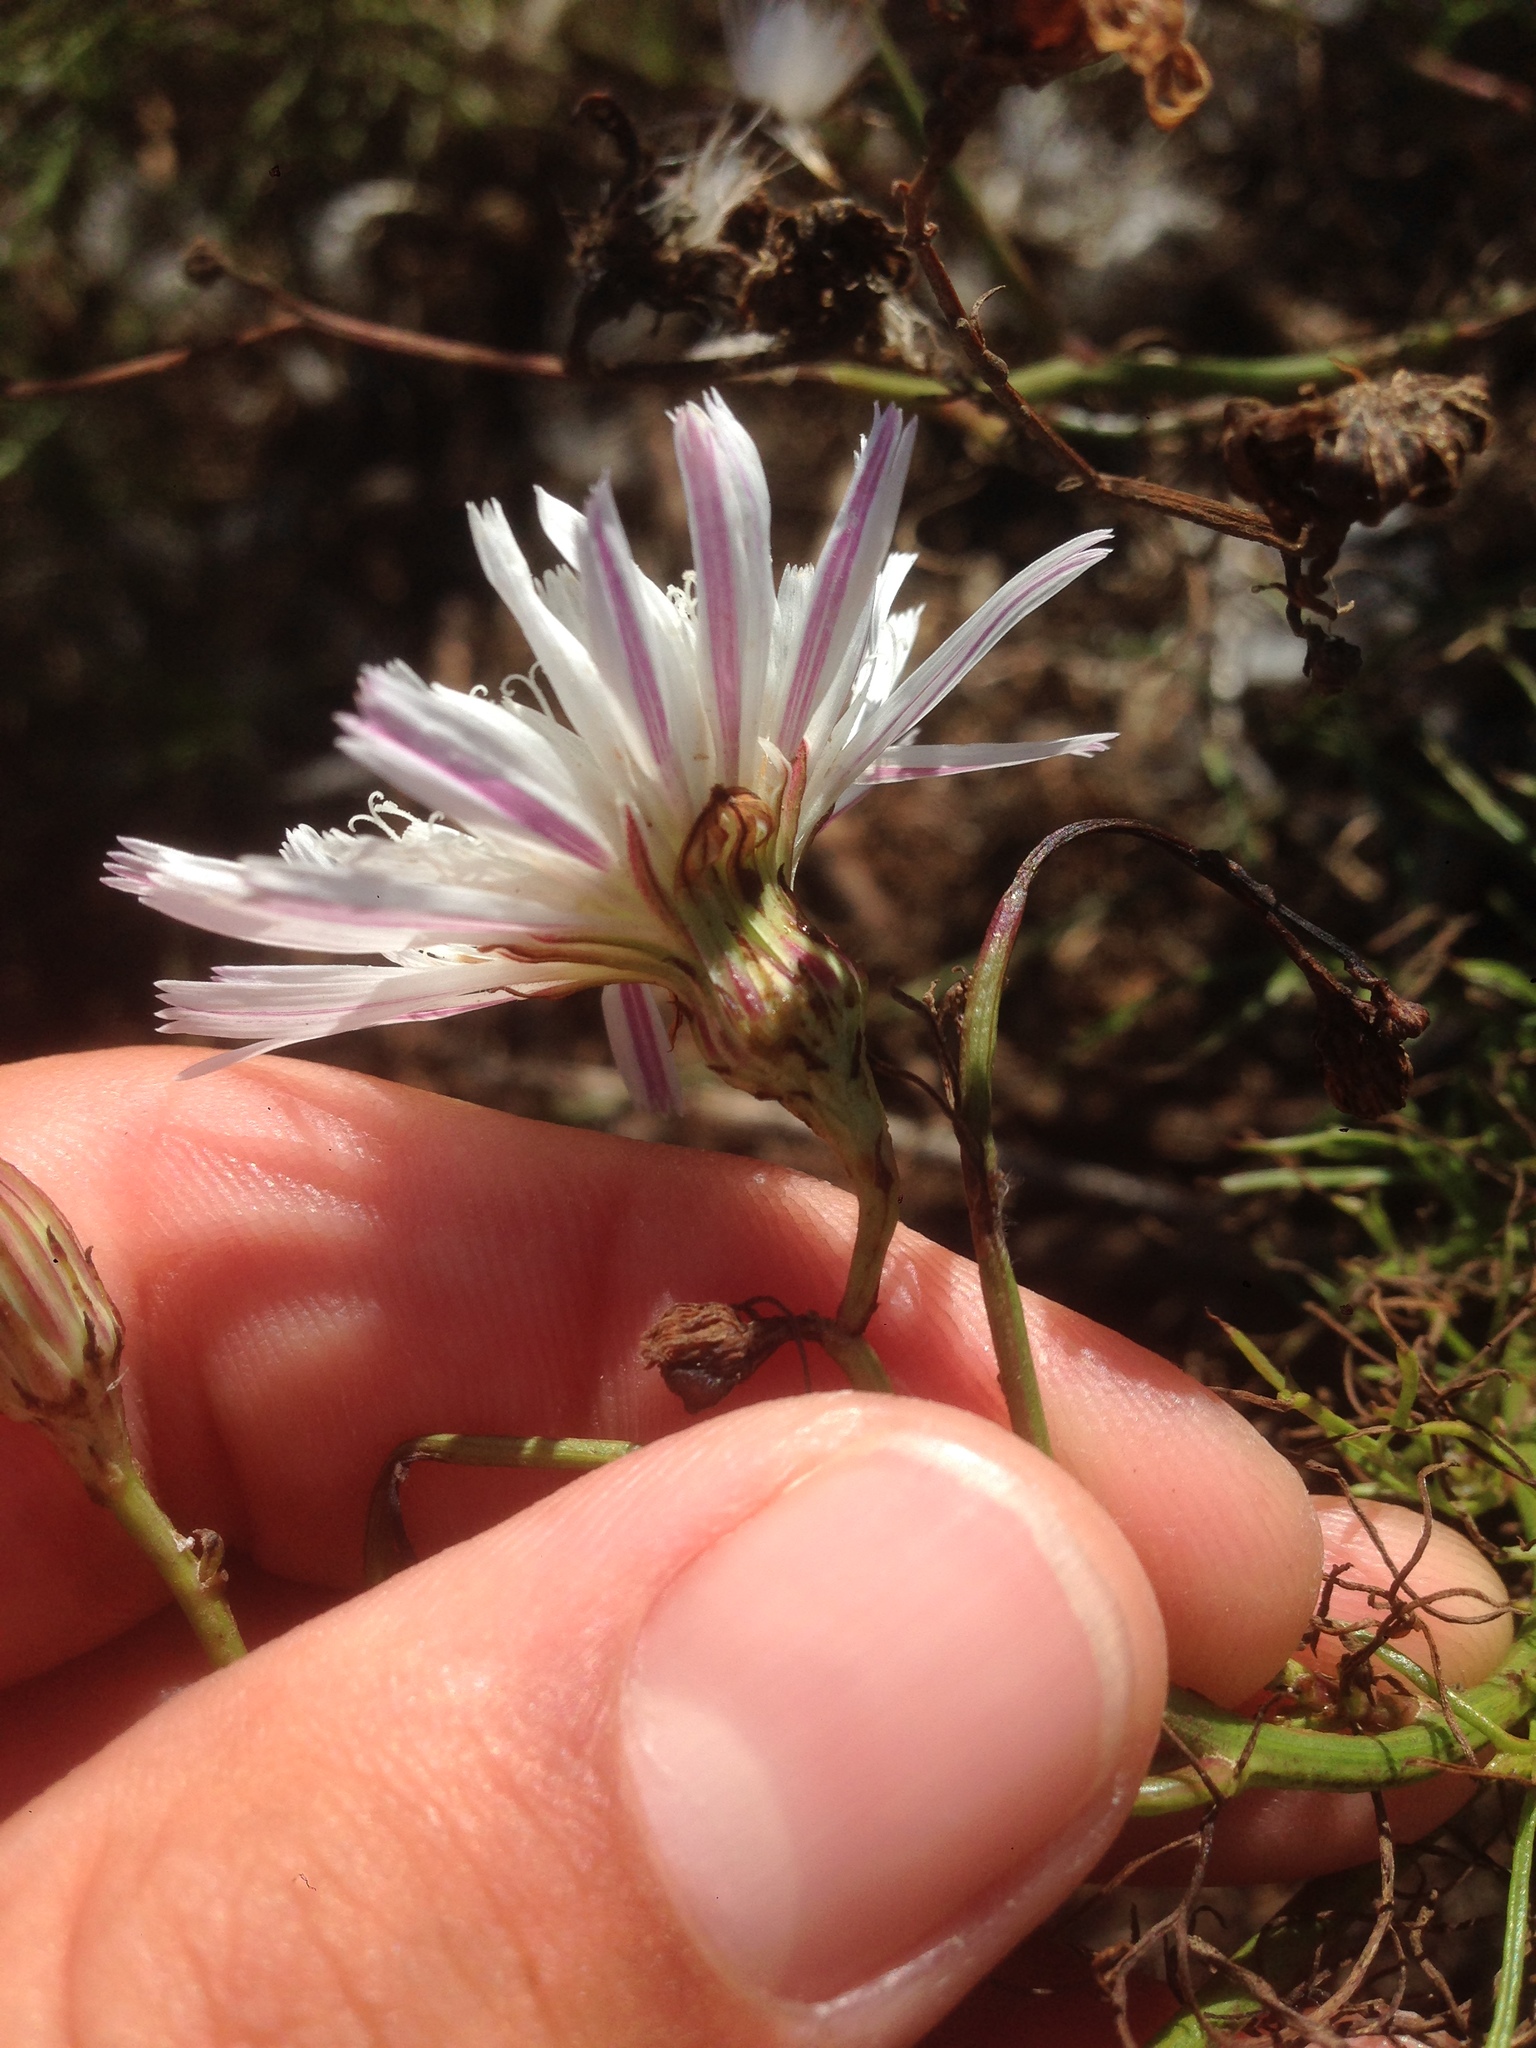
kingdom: Plantae
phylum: Tracheophyta
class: Magnoliopsida
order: Asterales
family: Asteraceae
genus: Malacothrix
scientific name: Malacothrix saxatilis
